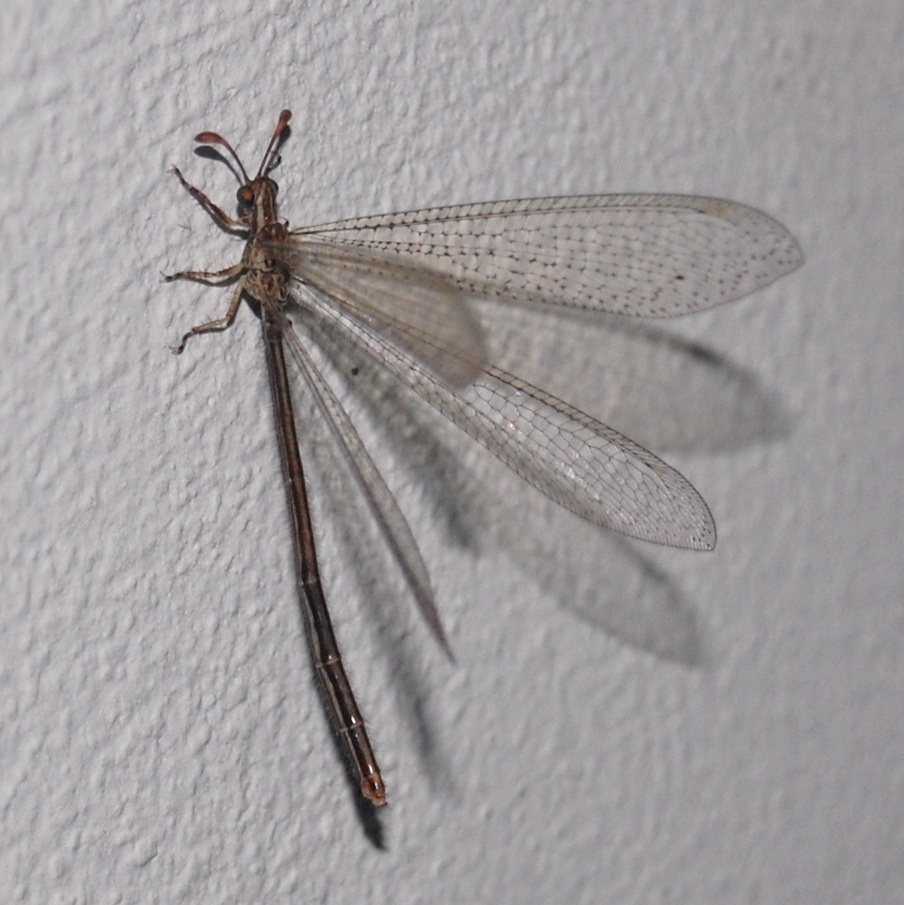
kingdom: Animalia
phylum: Arthropoda
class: Insecta
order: Neuroptera
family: Myrmeleontidae
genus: Argentoleon
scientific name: Argentoleon irrigatus
